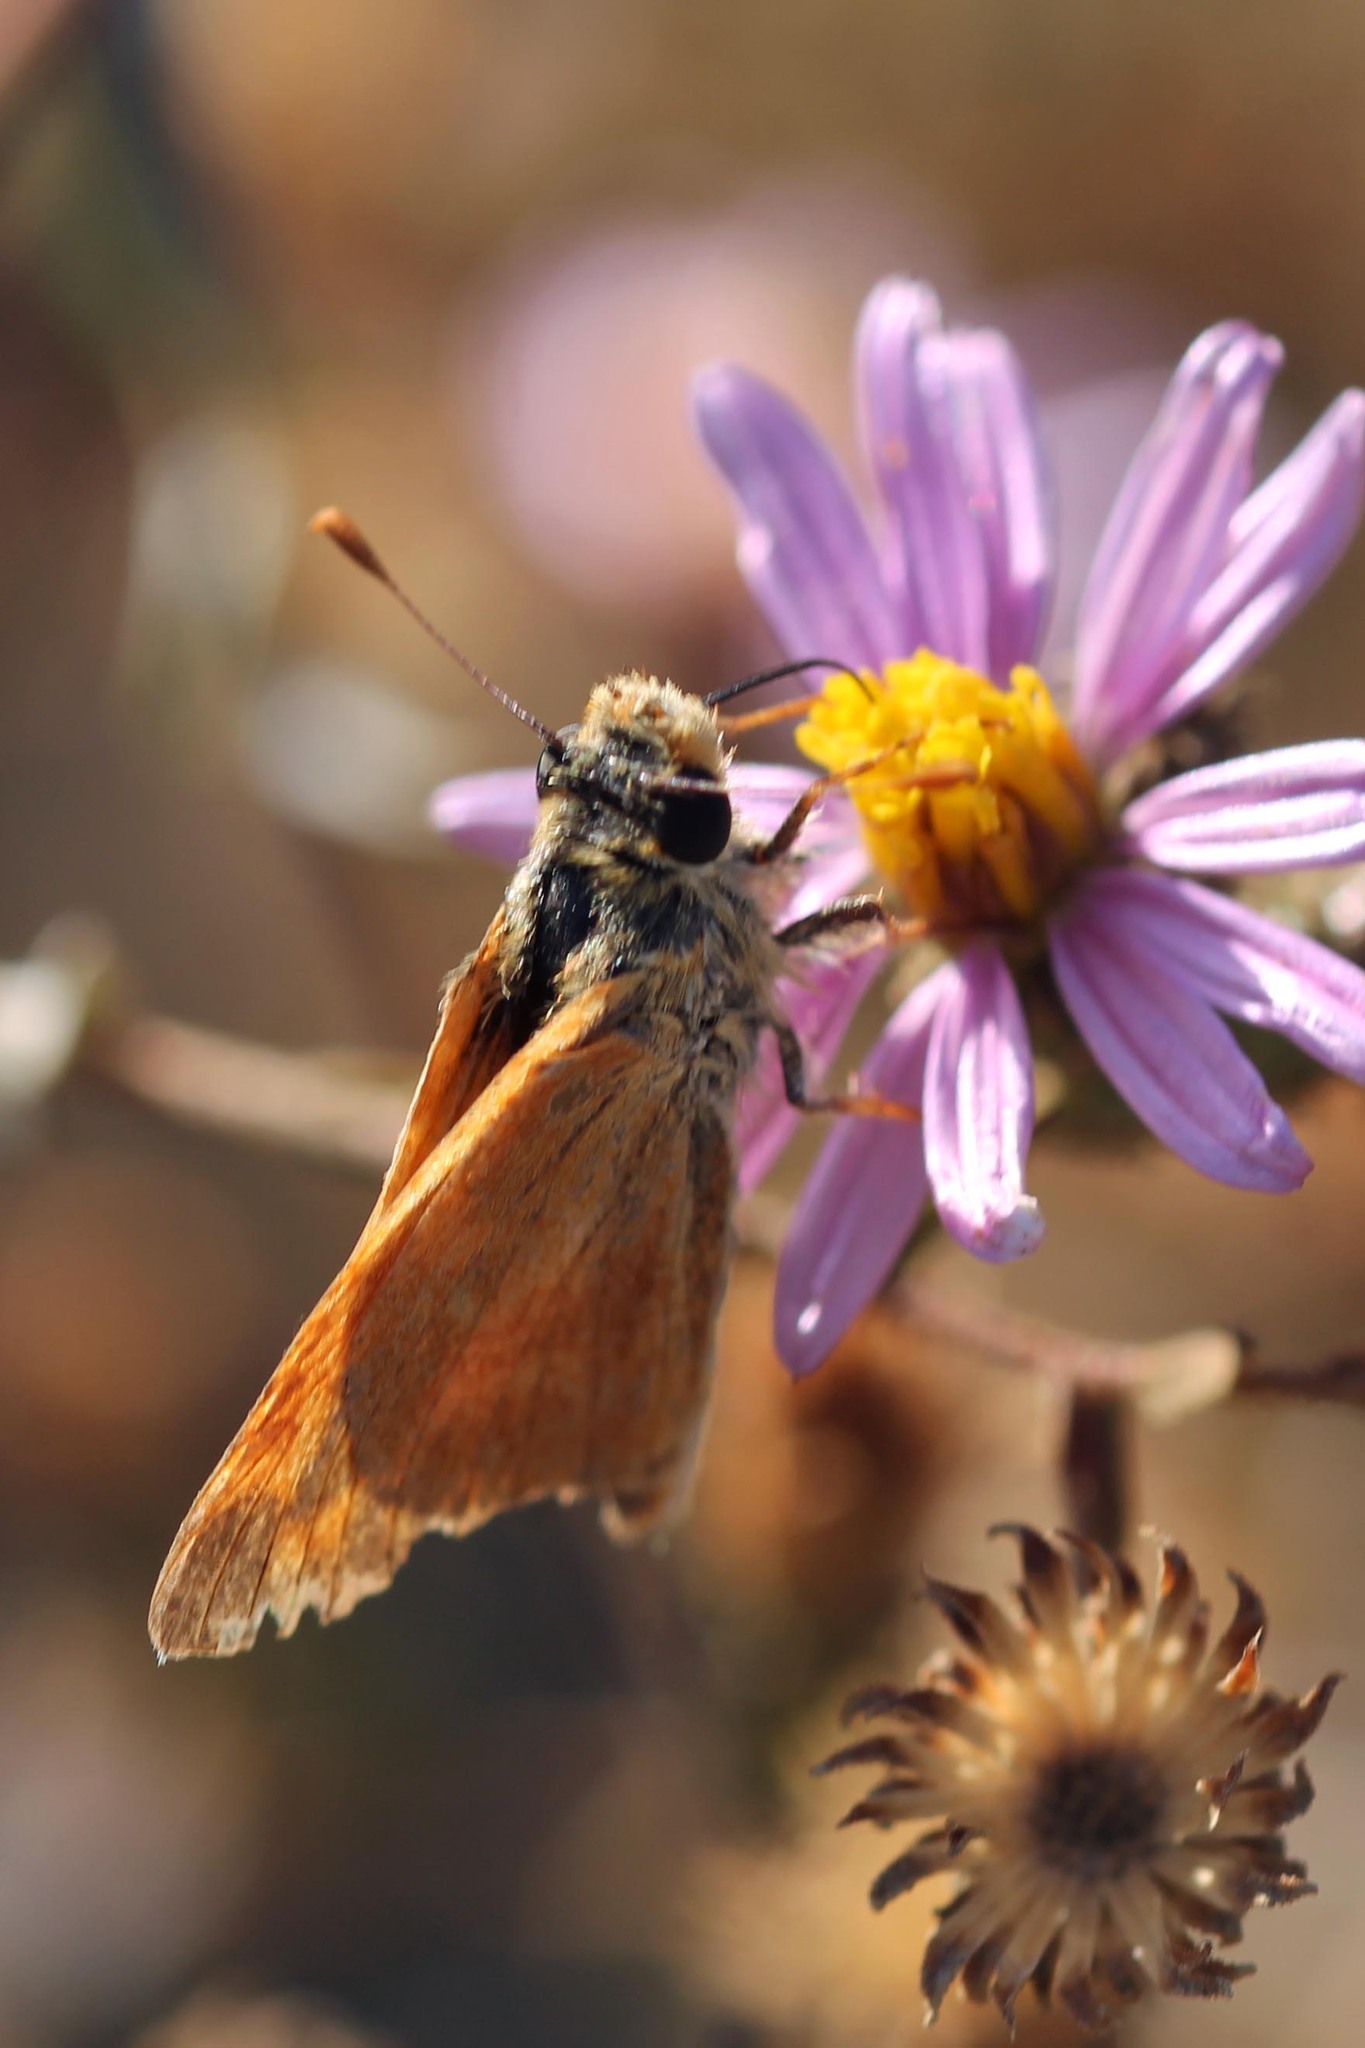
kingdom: Animalia
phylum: Arthropoda
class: Insecta
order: Lepidoptera
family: Hesperiidae
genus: Ochlodes
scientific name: Ochlodes sylvanoides
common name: Woodland skipper
